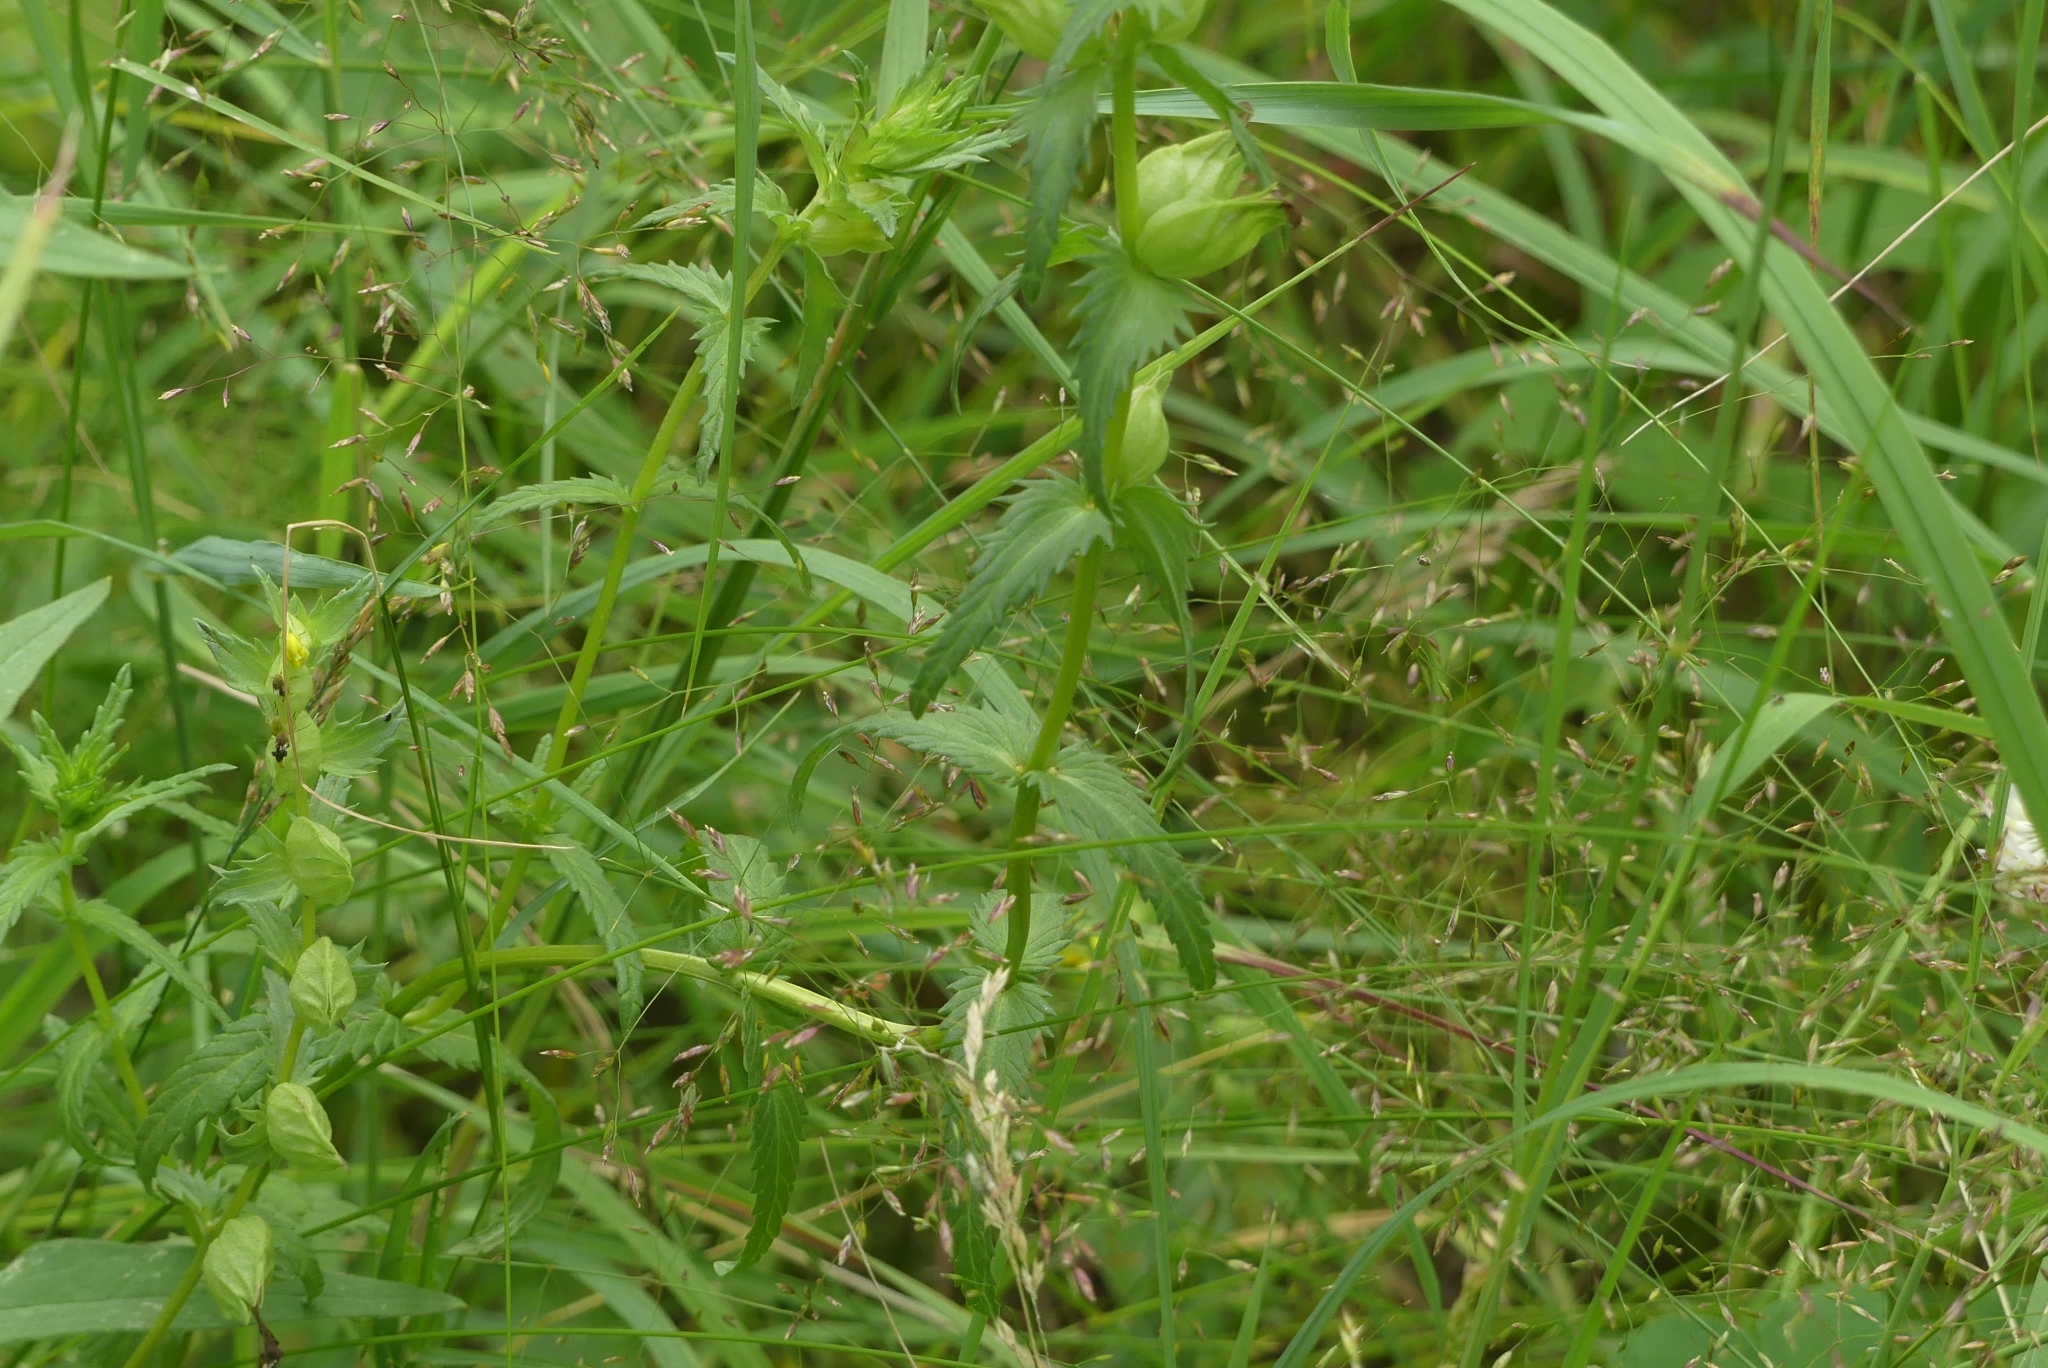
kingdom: Plantae
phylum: Tracheophyta
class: Magnoliopsida
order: Lamiales
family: Orobanchaceae
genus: Rhinanthus
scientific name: Rhinanthus minor
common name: Yellow-rattle
